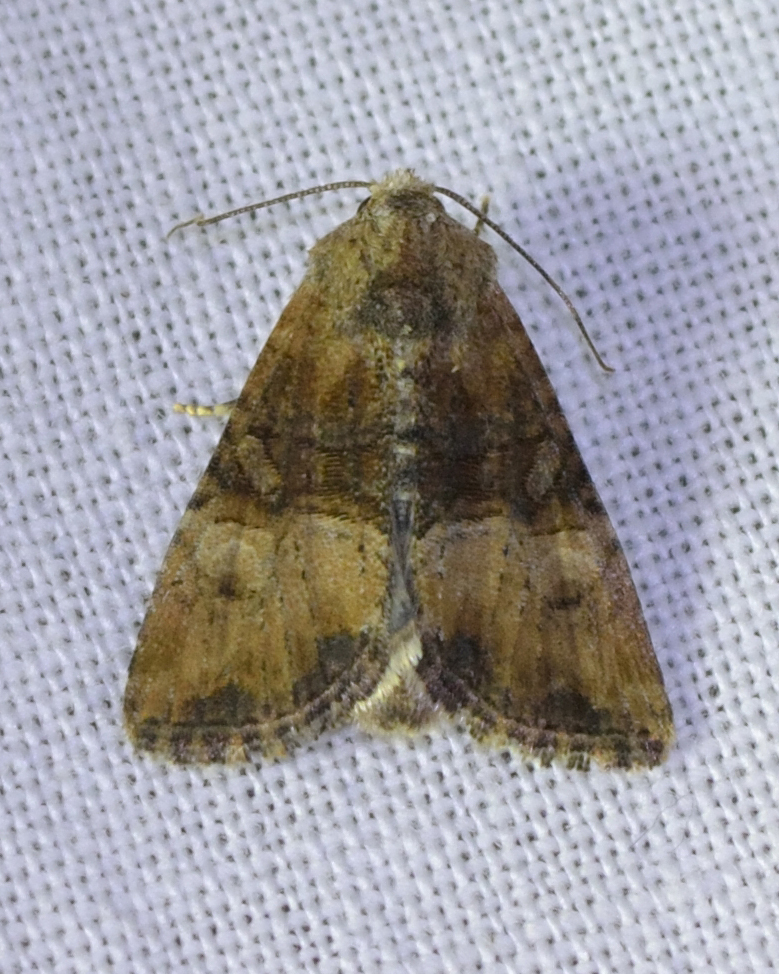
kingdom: Animalia
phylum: Arthropoda
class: Insecta
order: Lepidoptera
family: Noctuidae
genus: Mesoligia
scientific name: Mesoligia furuncula
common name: Cloaked minor
